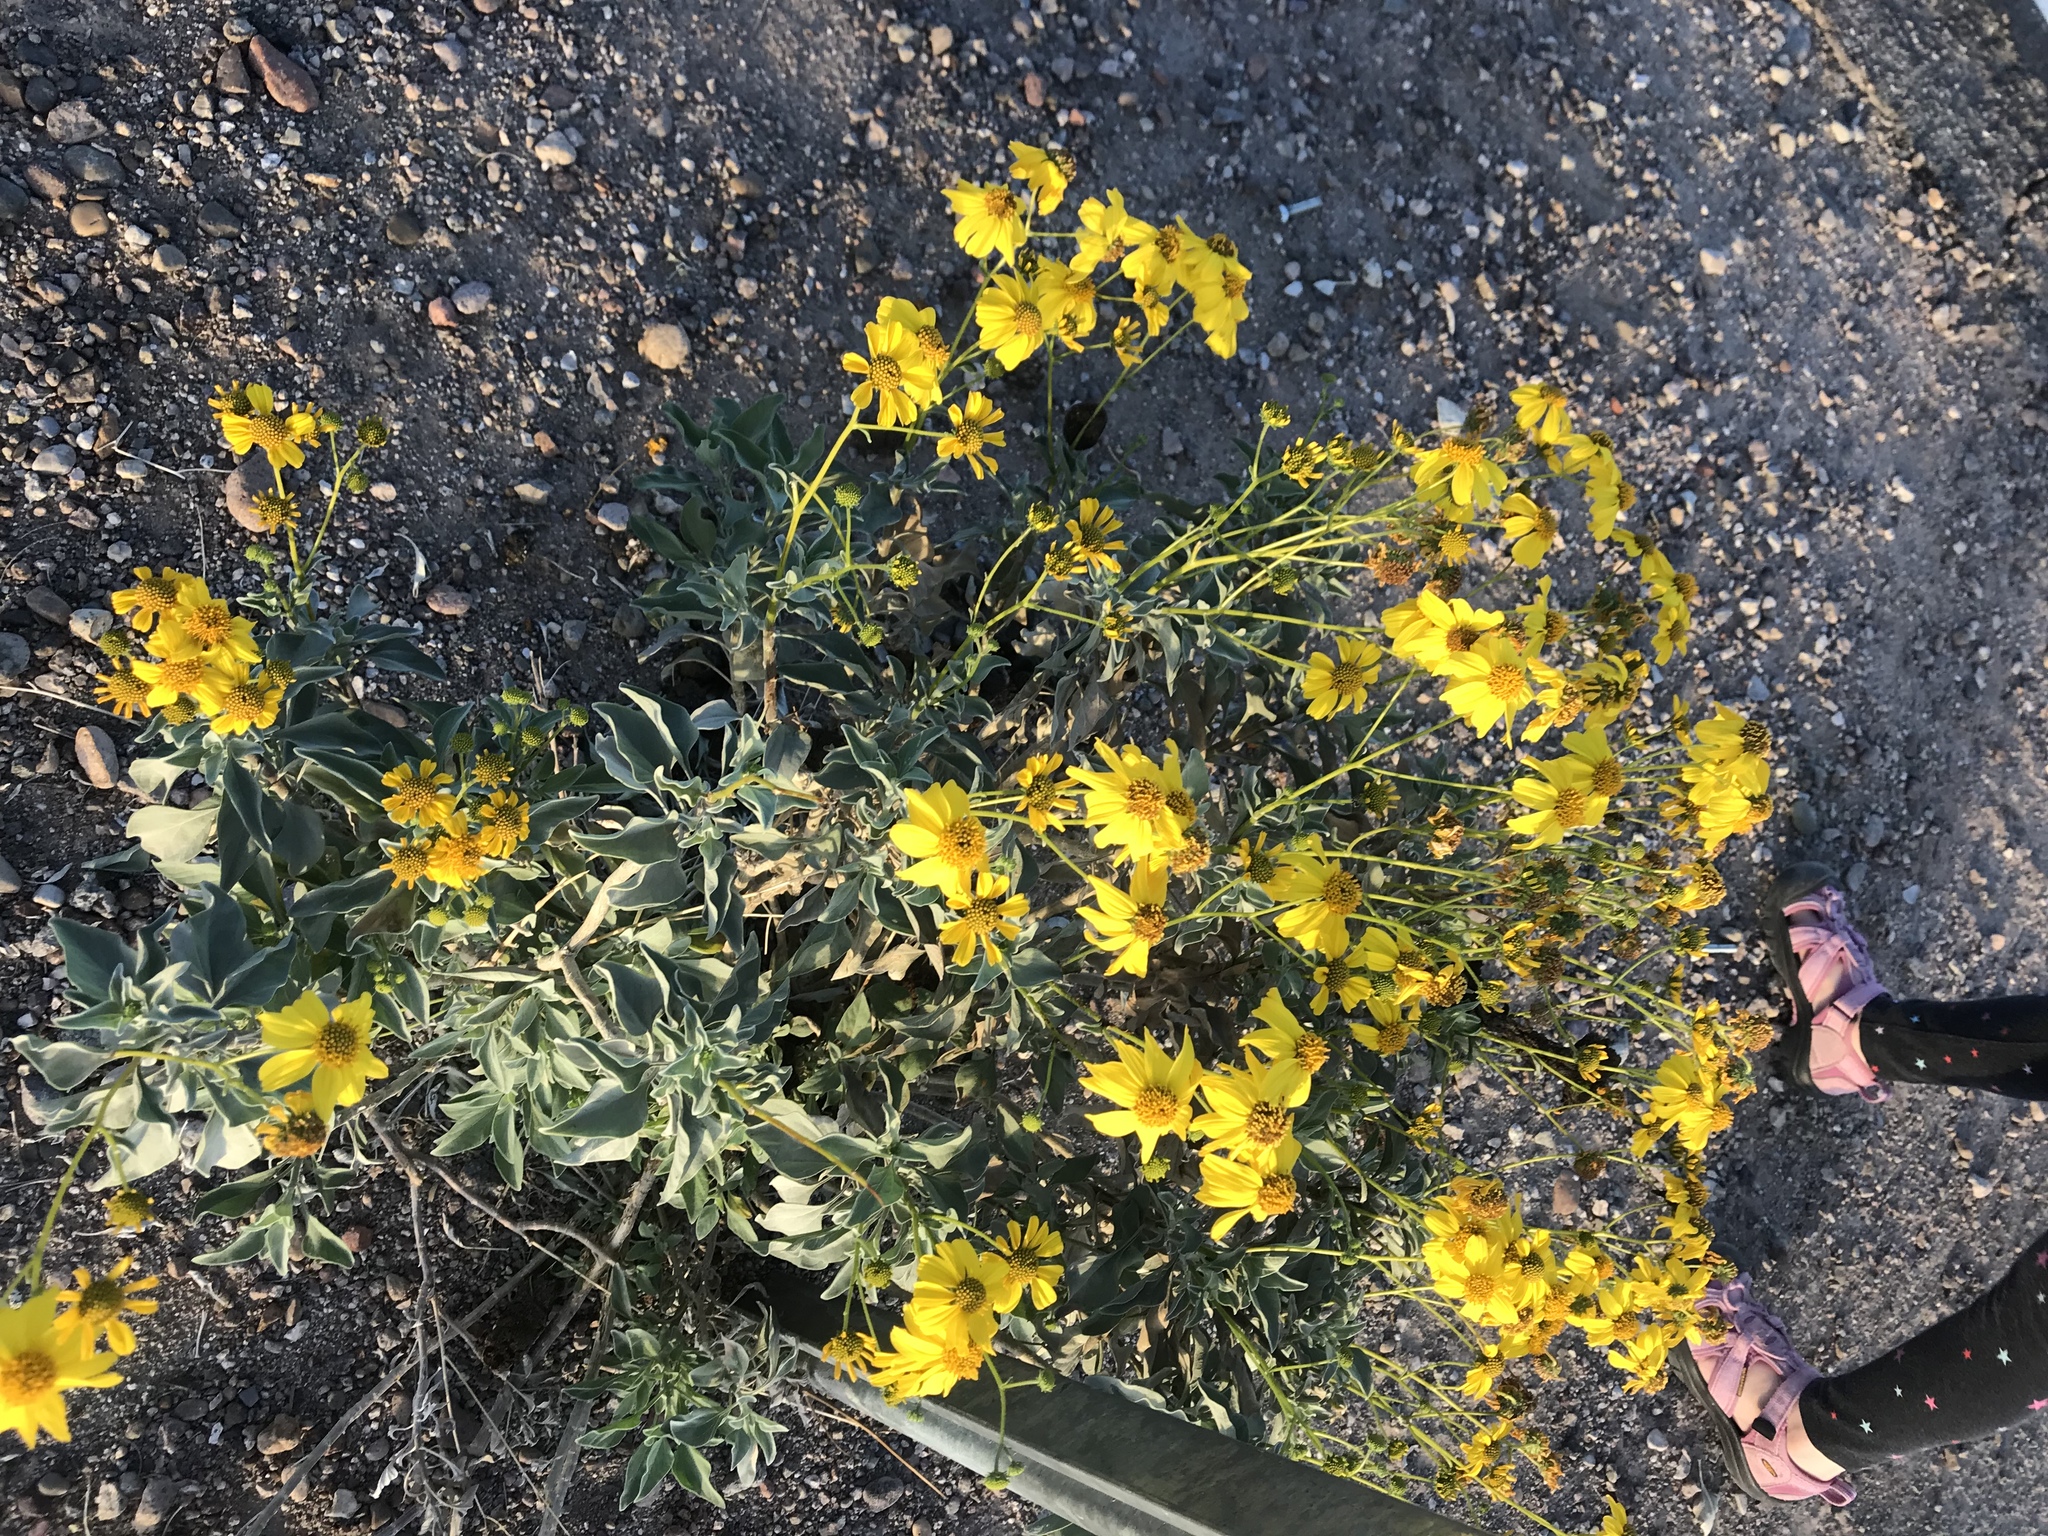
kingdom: Plantae
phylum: Tracheophyta
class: Magnoliopsida
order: Asterales
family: Asteraceae
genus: Encelia
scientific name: Encelia farinosa
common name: Brittlebush
